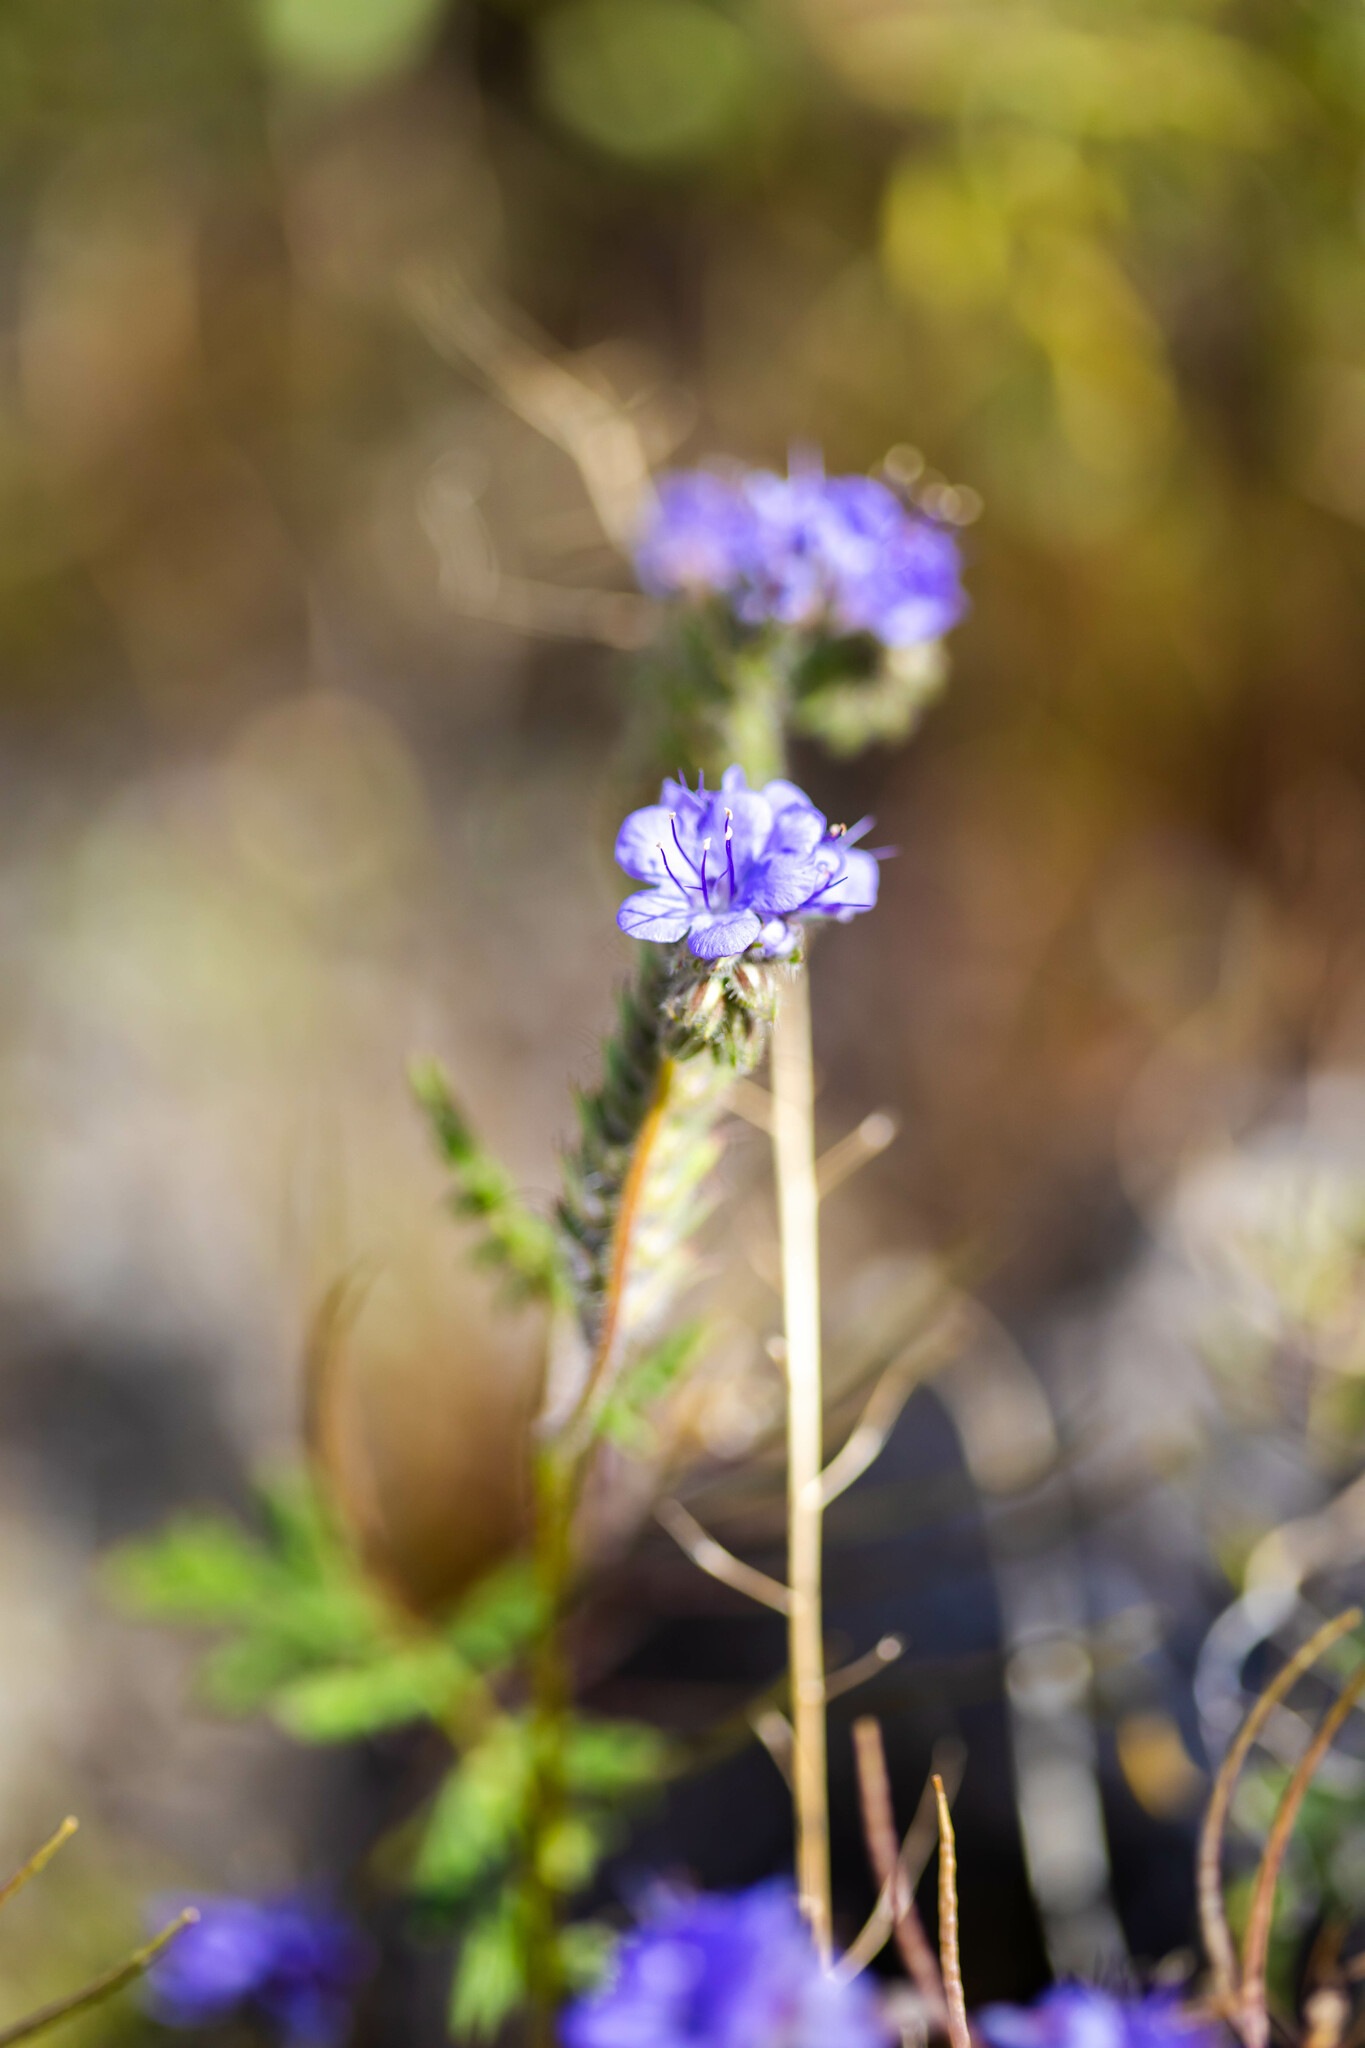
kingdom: Plantae
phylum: Tracheophyta
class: Magnoliopsida
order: Boraginales
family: Hydrophyllaceae
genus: Phacelia
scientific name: Phacelia distans
